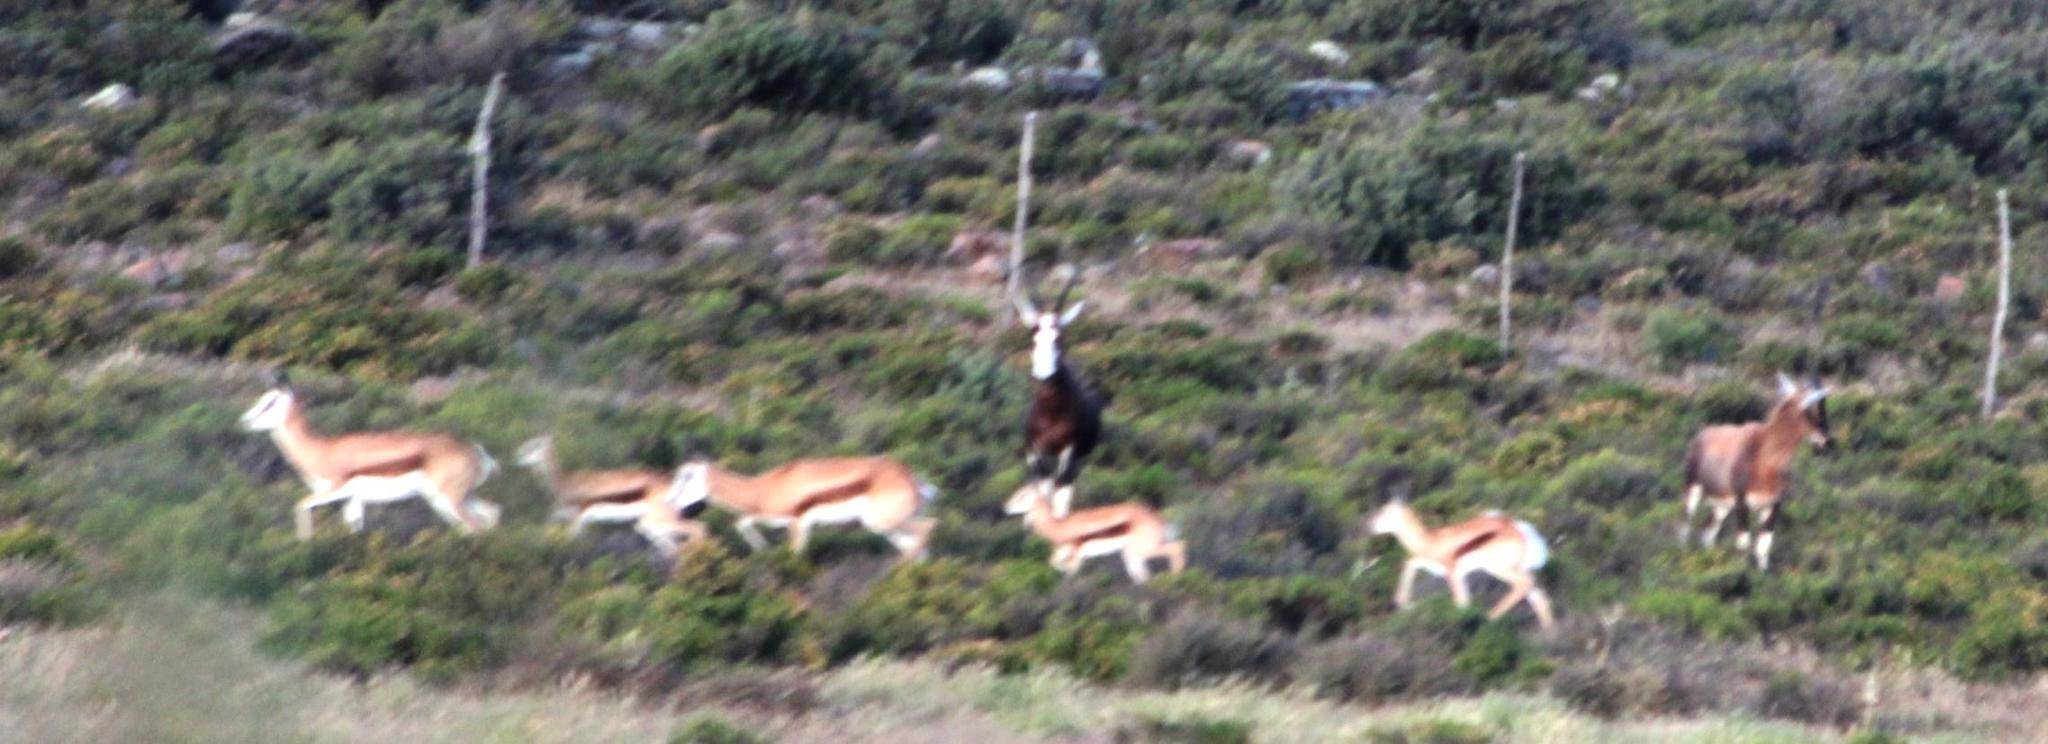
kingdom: Animalia
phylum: Chordata
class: Mammalia
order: Artiodactyla
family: Bovidae
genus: Antidorcas
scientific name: Antidorcas marsupialis
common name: Springbok
